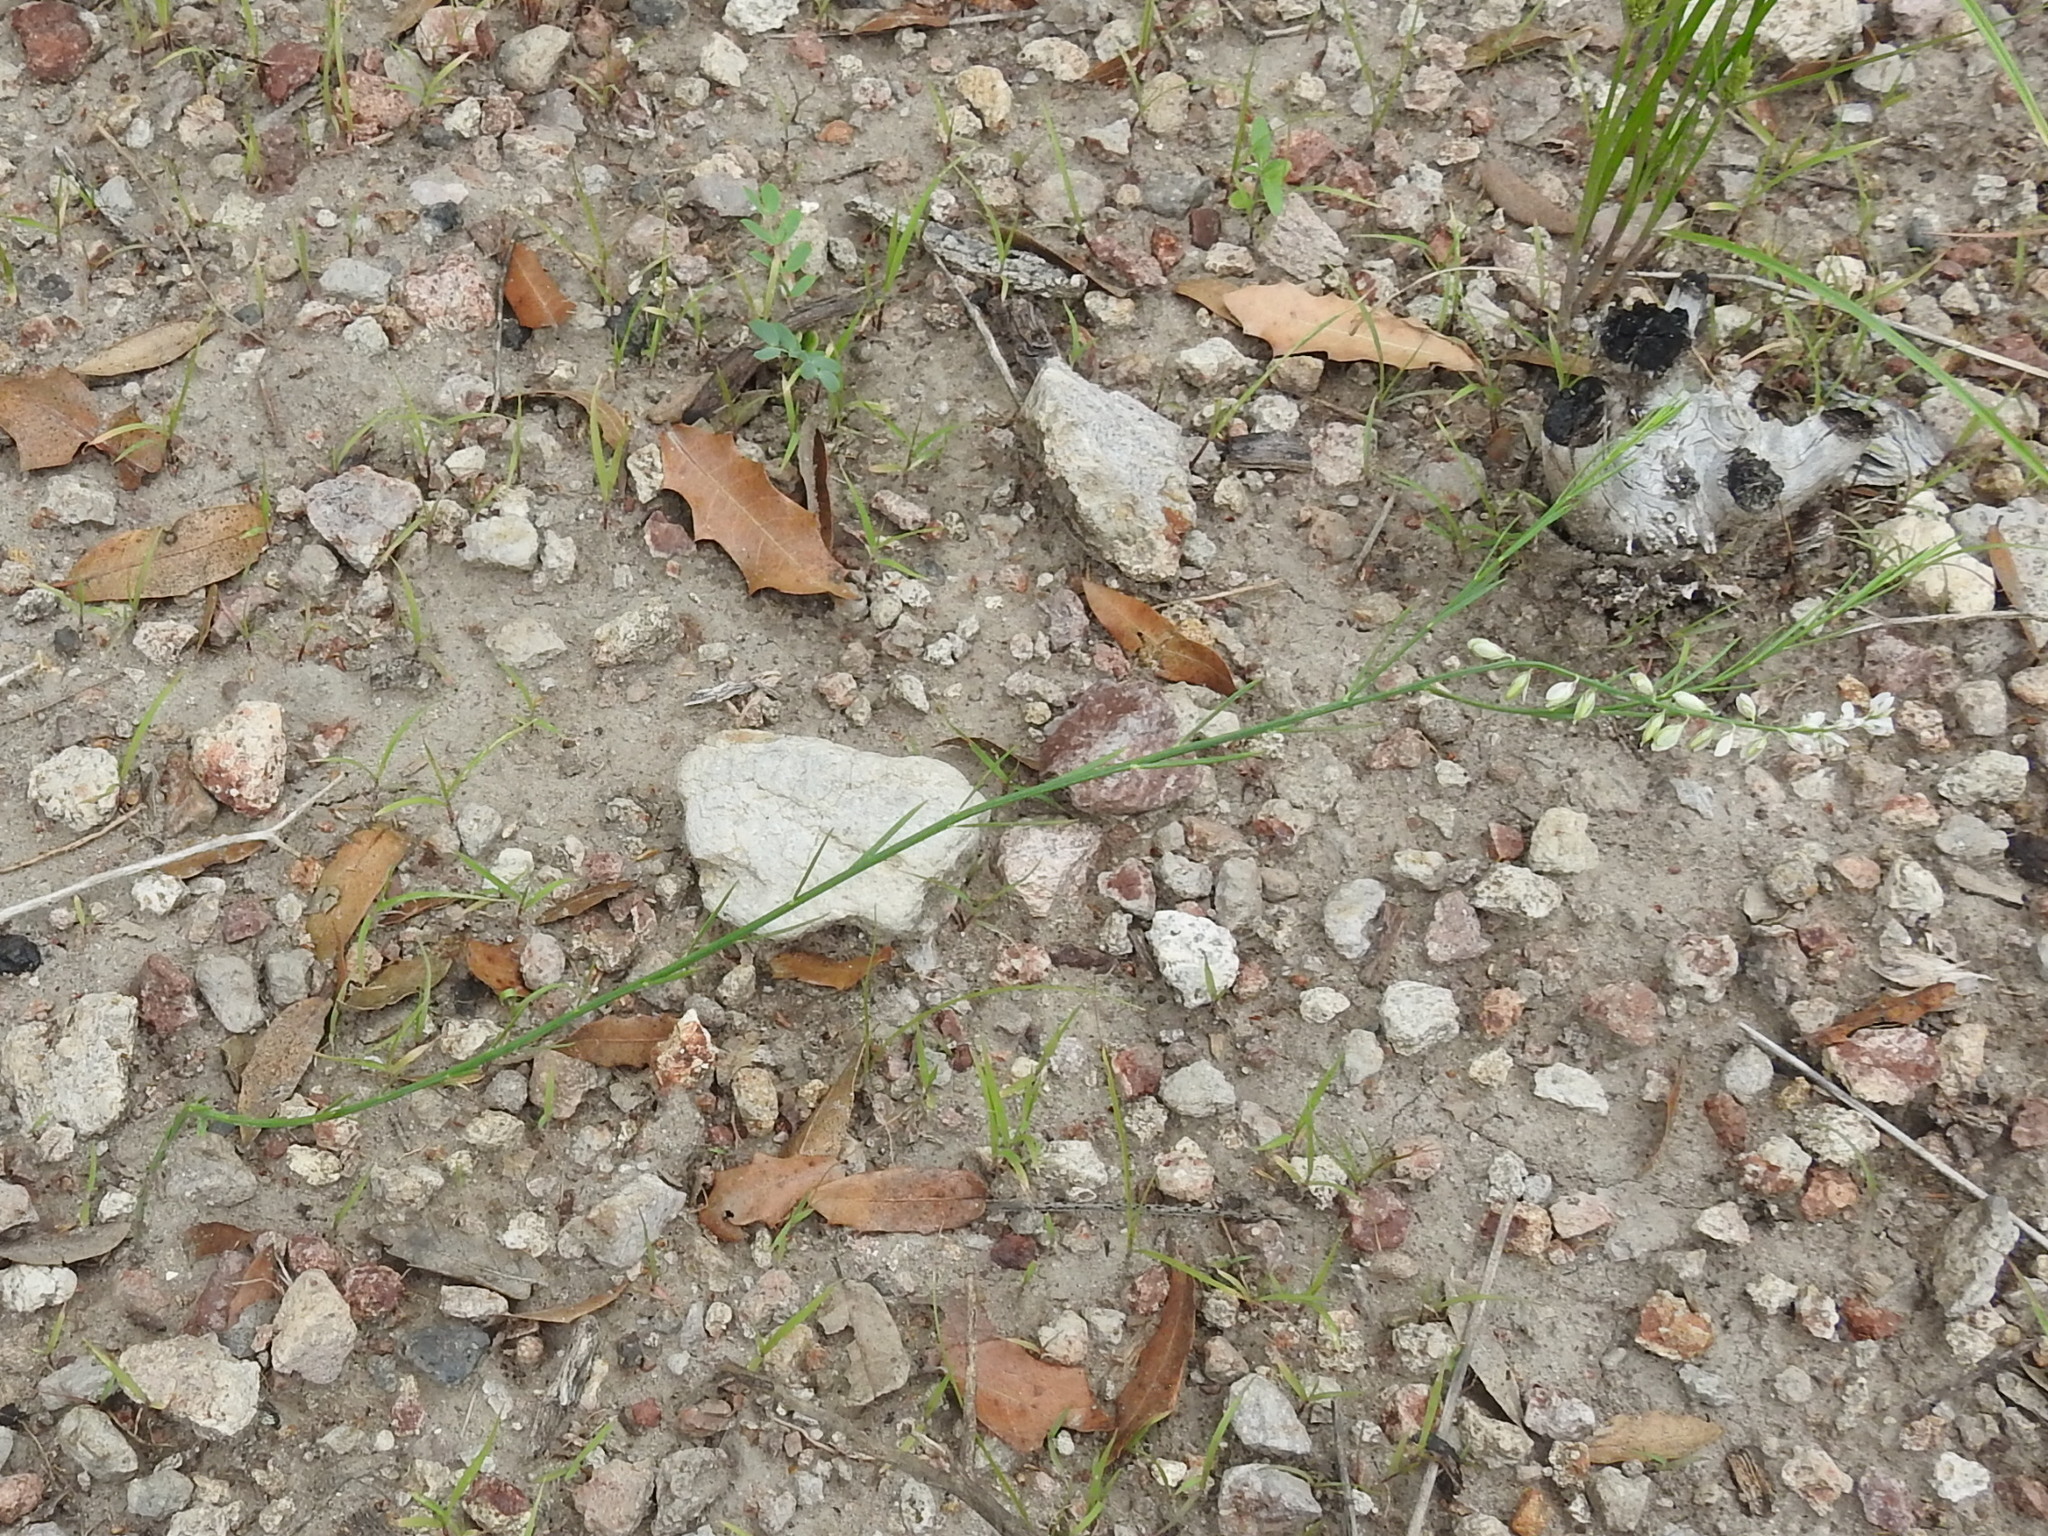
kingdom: Plantae
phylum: Tracheophyta
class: Magnoliopsida
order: Fabales
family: Polygalaceae
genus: Polygala
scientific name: Polygala hemipterocarpa
